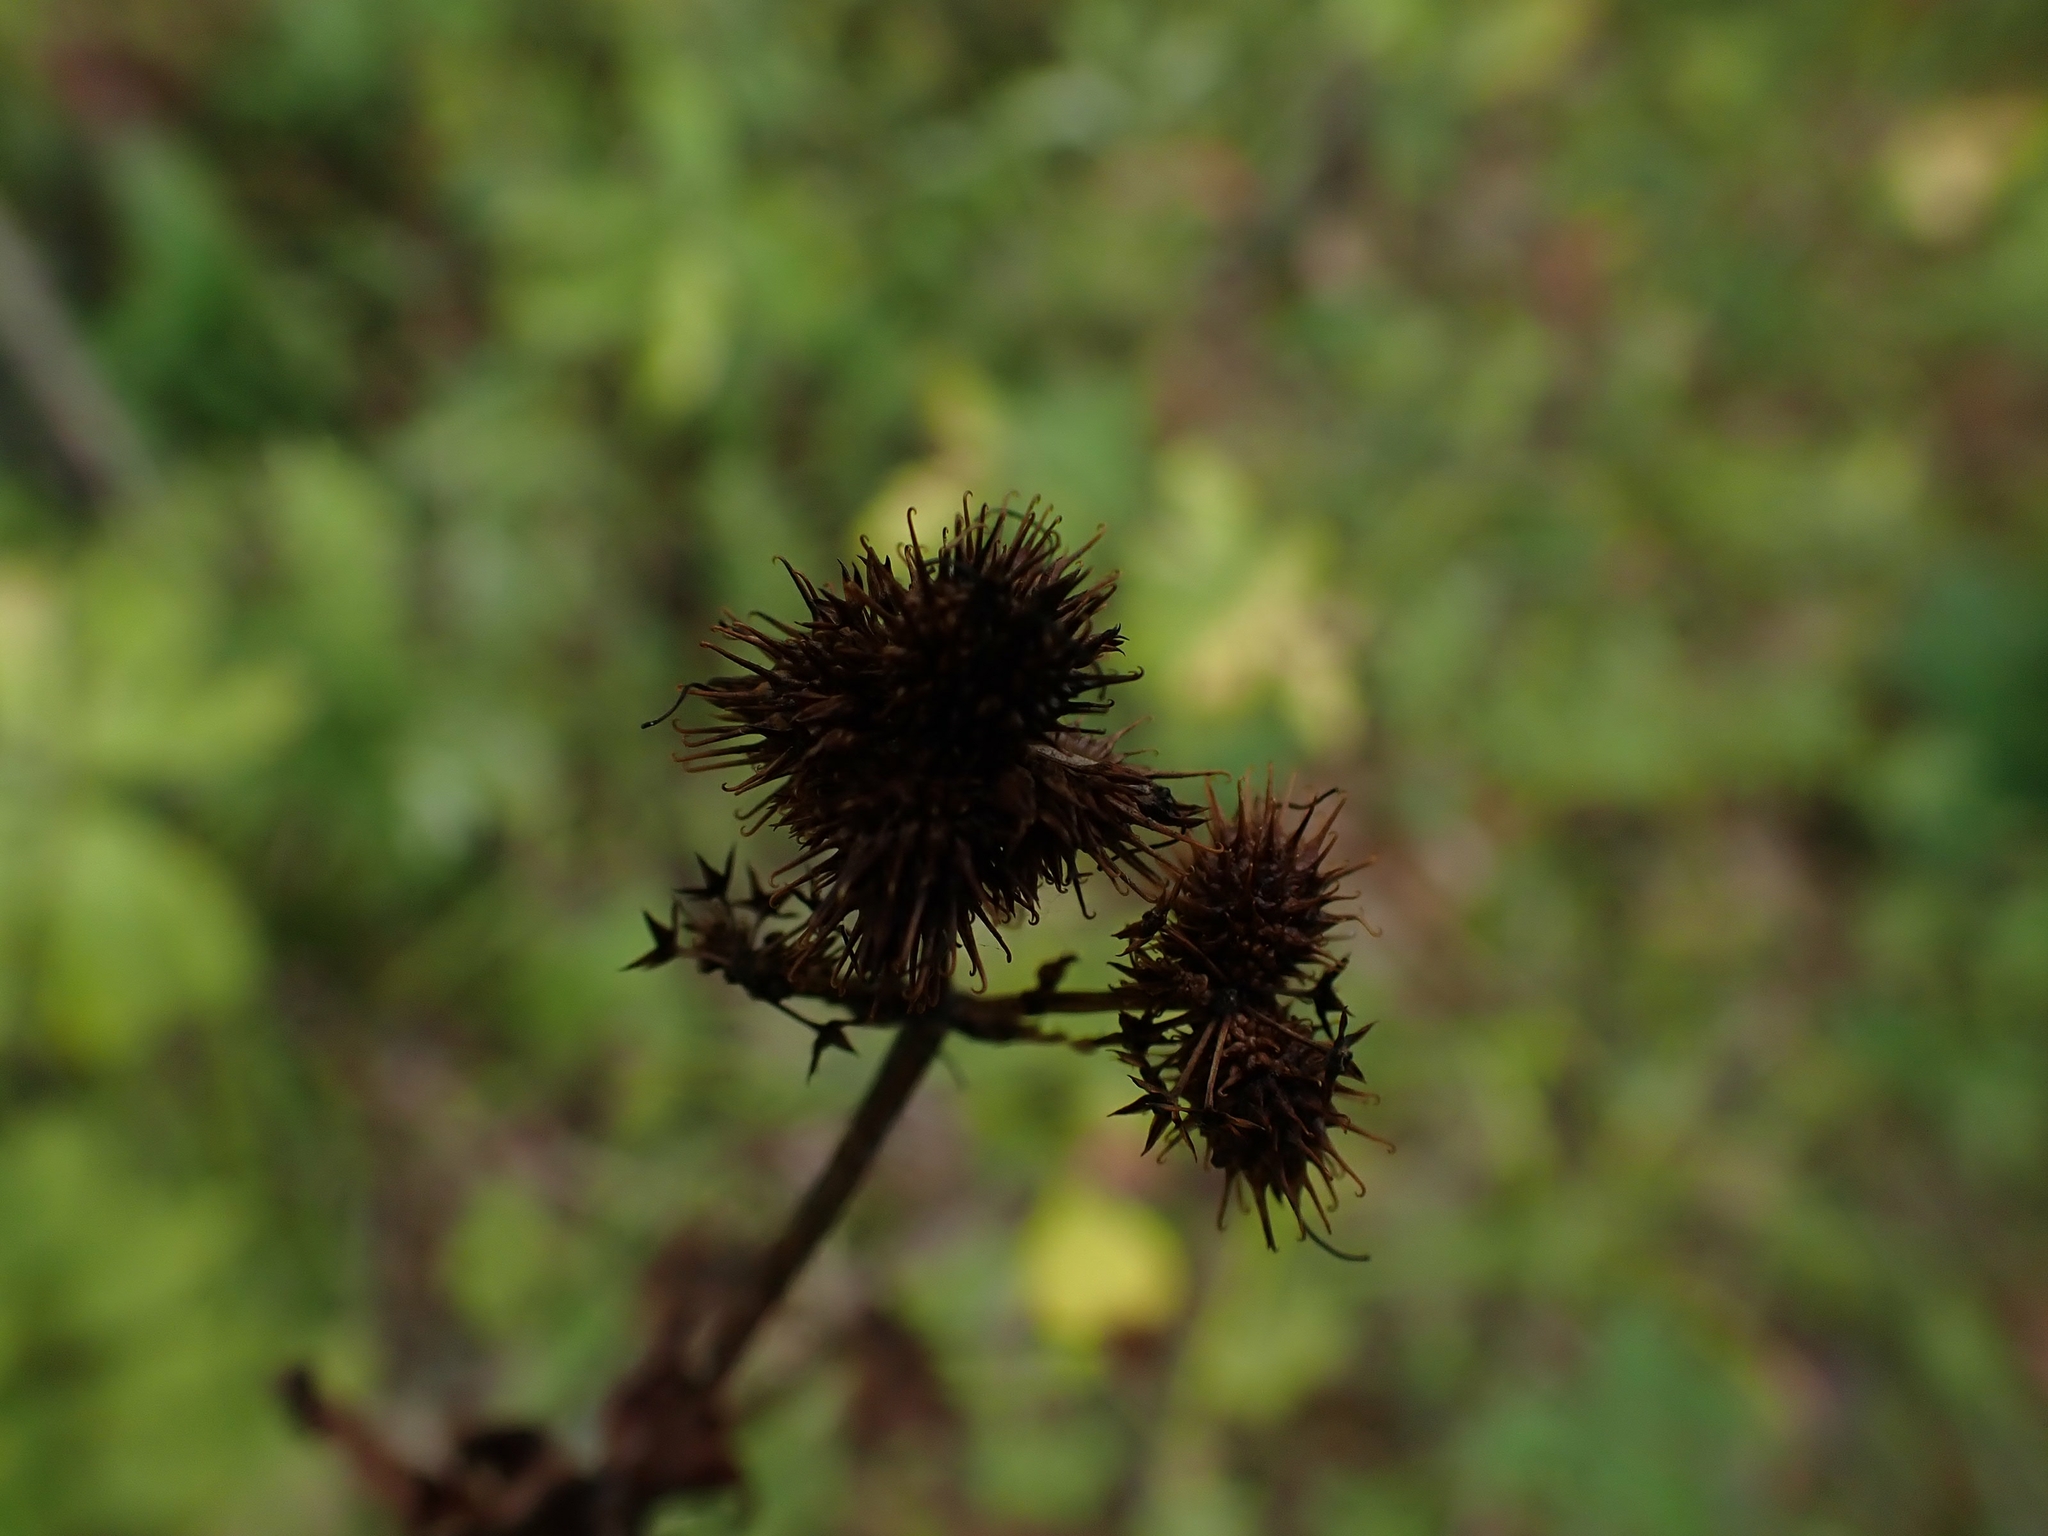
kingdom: Plantae
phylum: Tracheophyta
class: Magnoliopsida
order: Apiales
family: Apiaceae
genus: Sanicula
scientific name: Sanicula marilandica
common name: Black snakeroot
